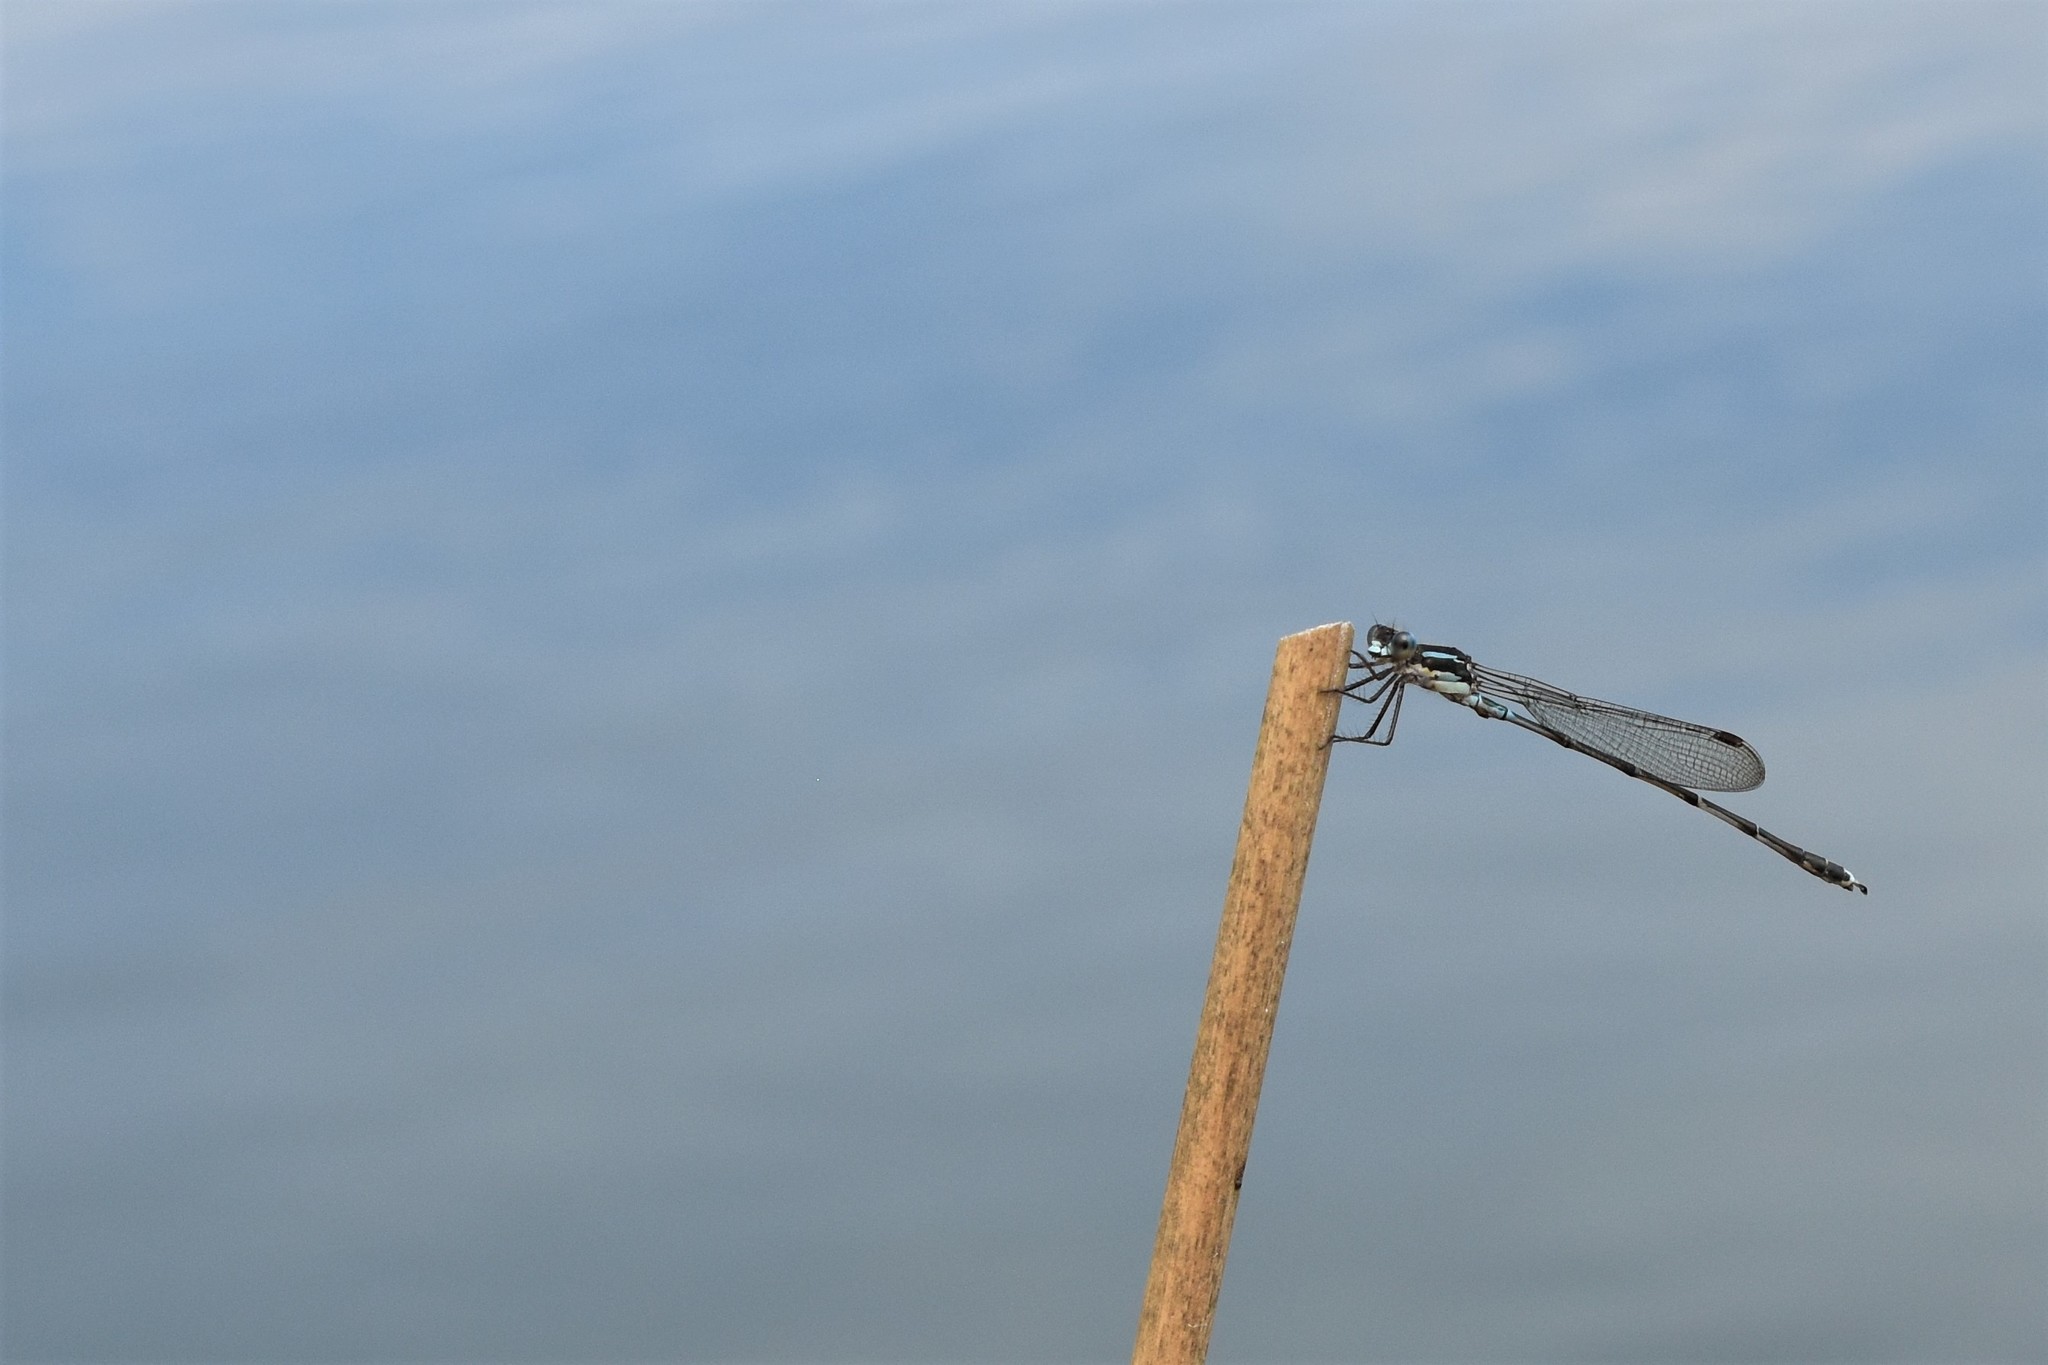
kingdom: Animalia
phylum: Arthropoda
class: Insecta
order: Odonata
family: Lestidae
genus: Austrolestes
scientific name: Austrolestes colensonis
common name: Blue damselfly
